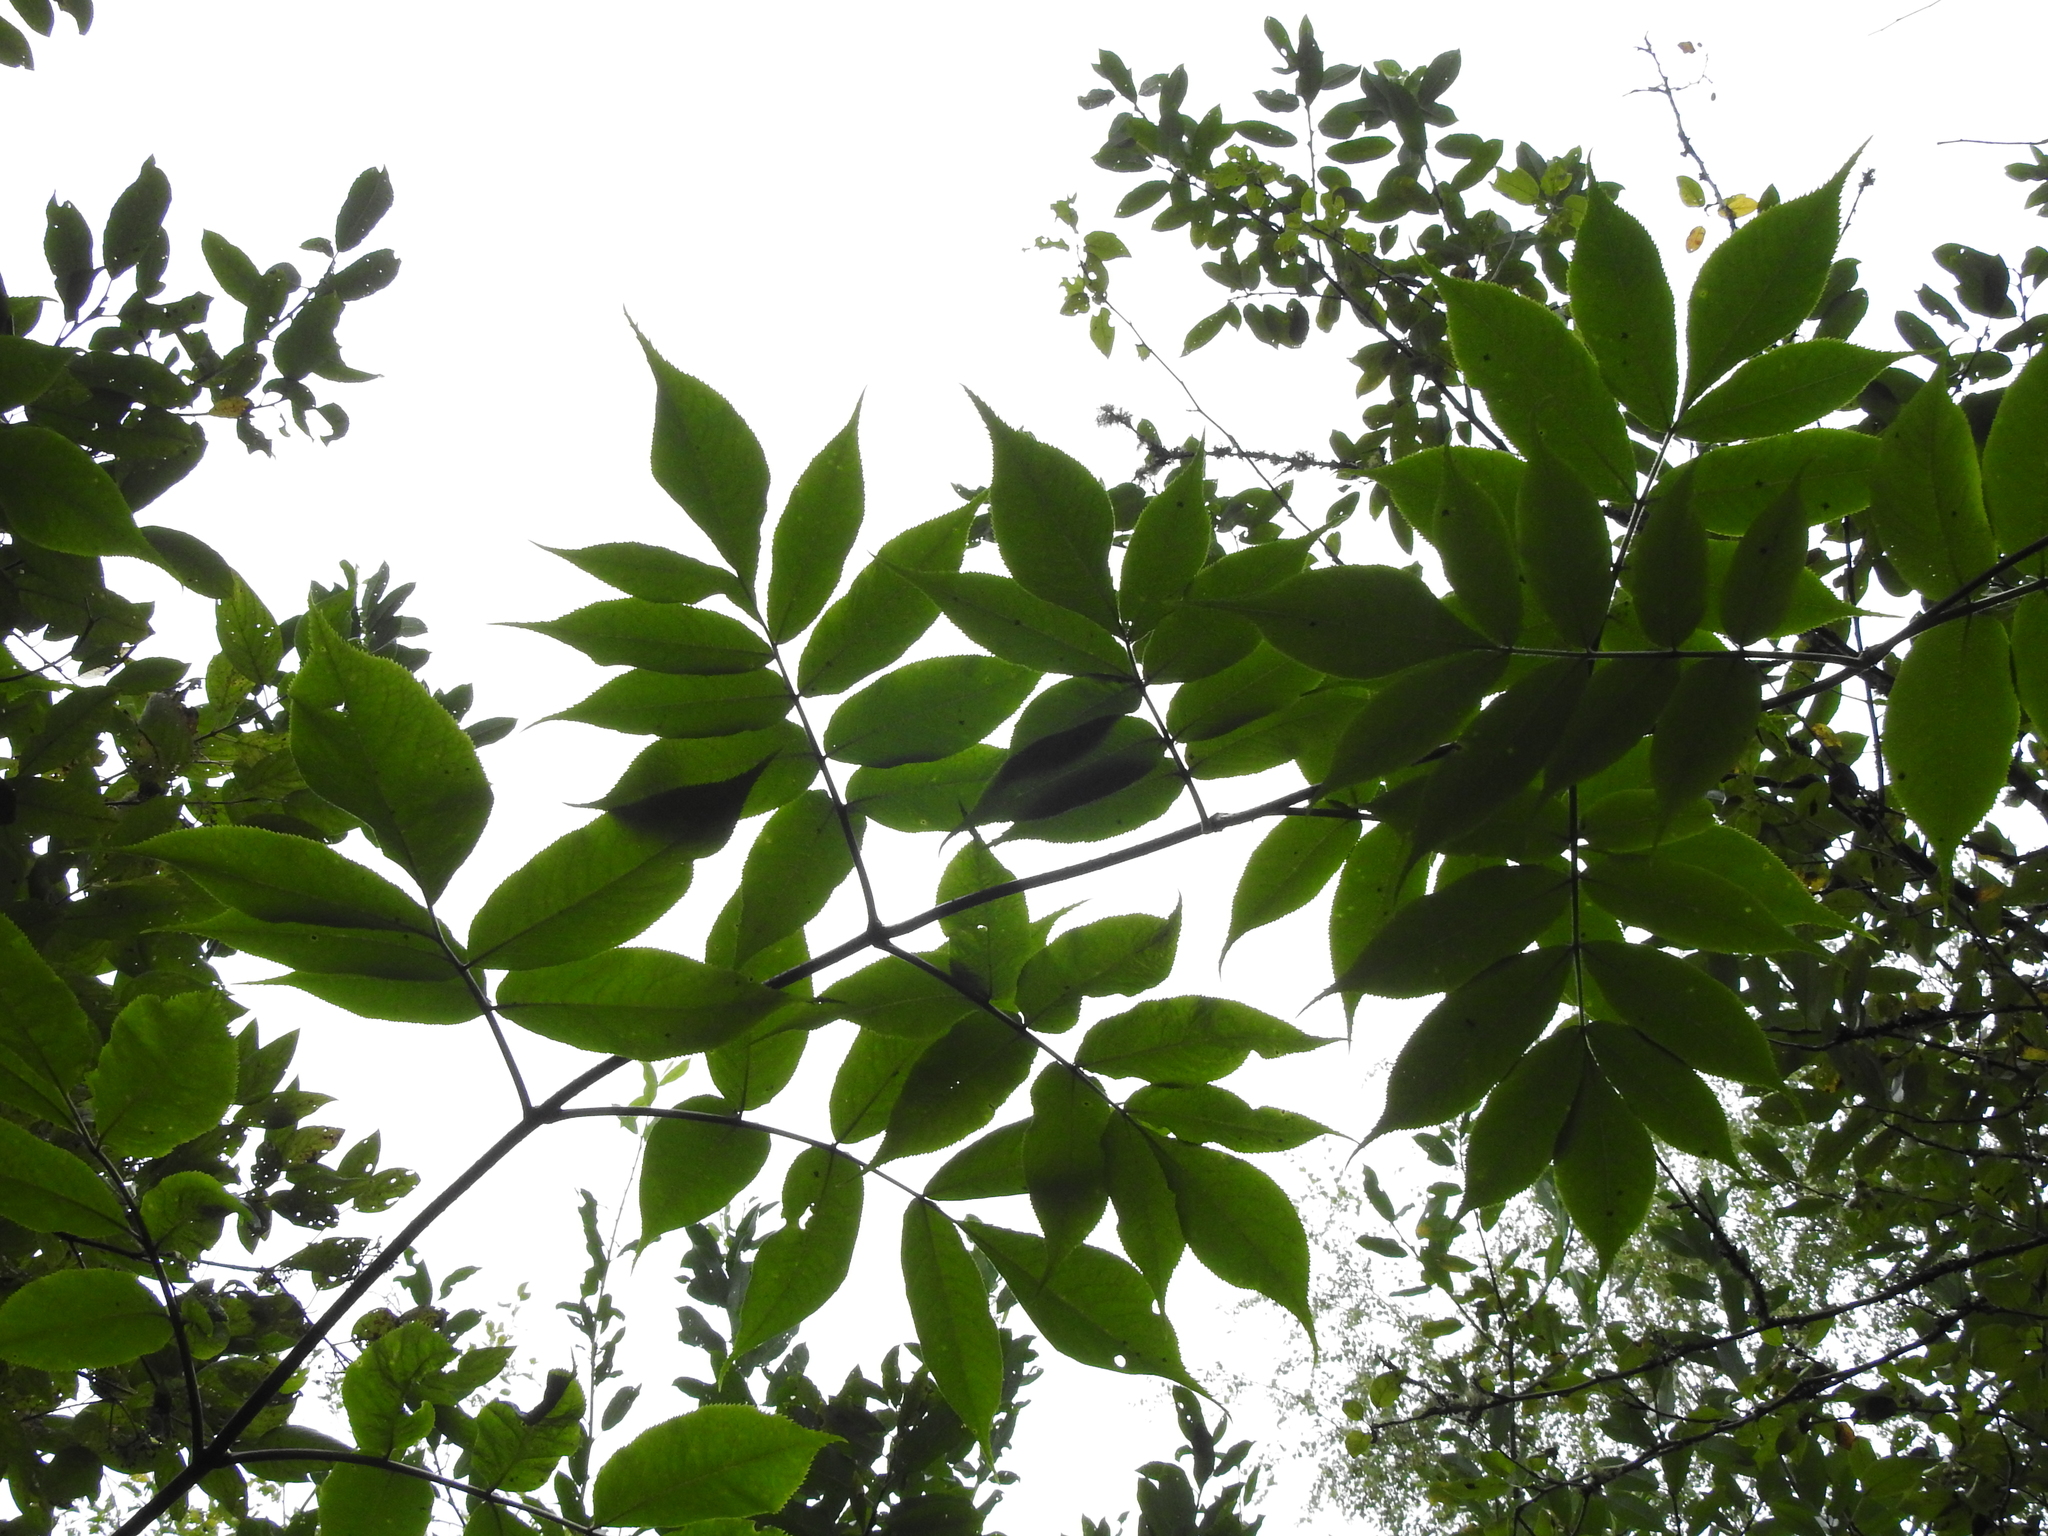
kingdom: Plantae
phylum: Tracheophyta
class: Magnoliopsida
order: Dipsacales
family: Viburnaceae
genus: Sambucus
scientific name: Sambucus racemosa
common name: Red-berried elder
